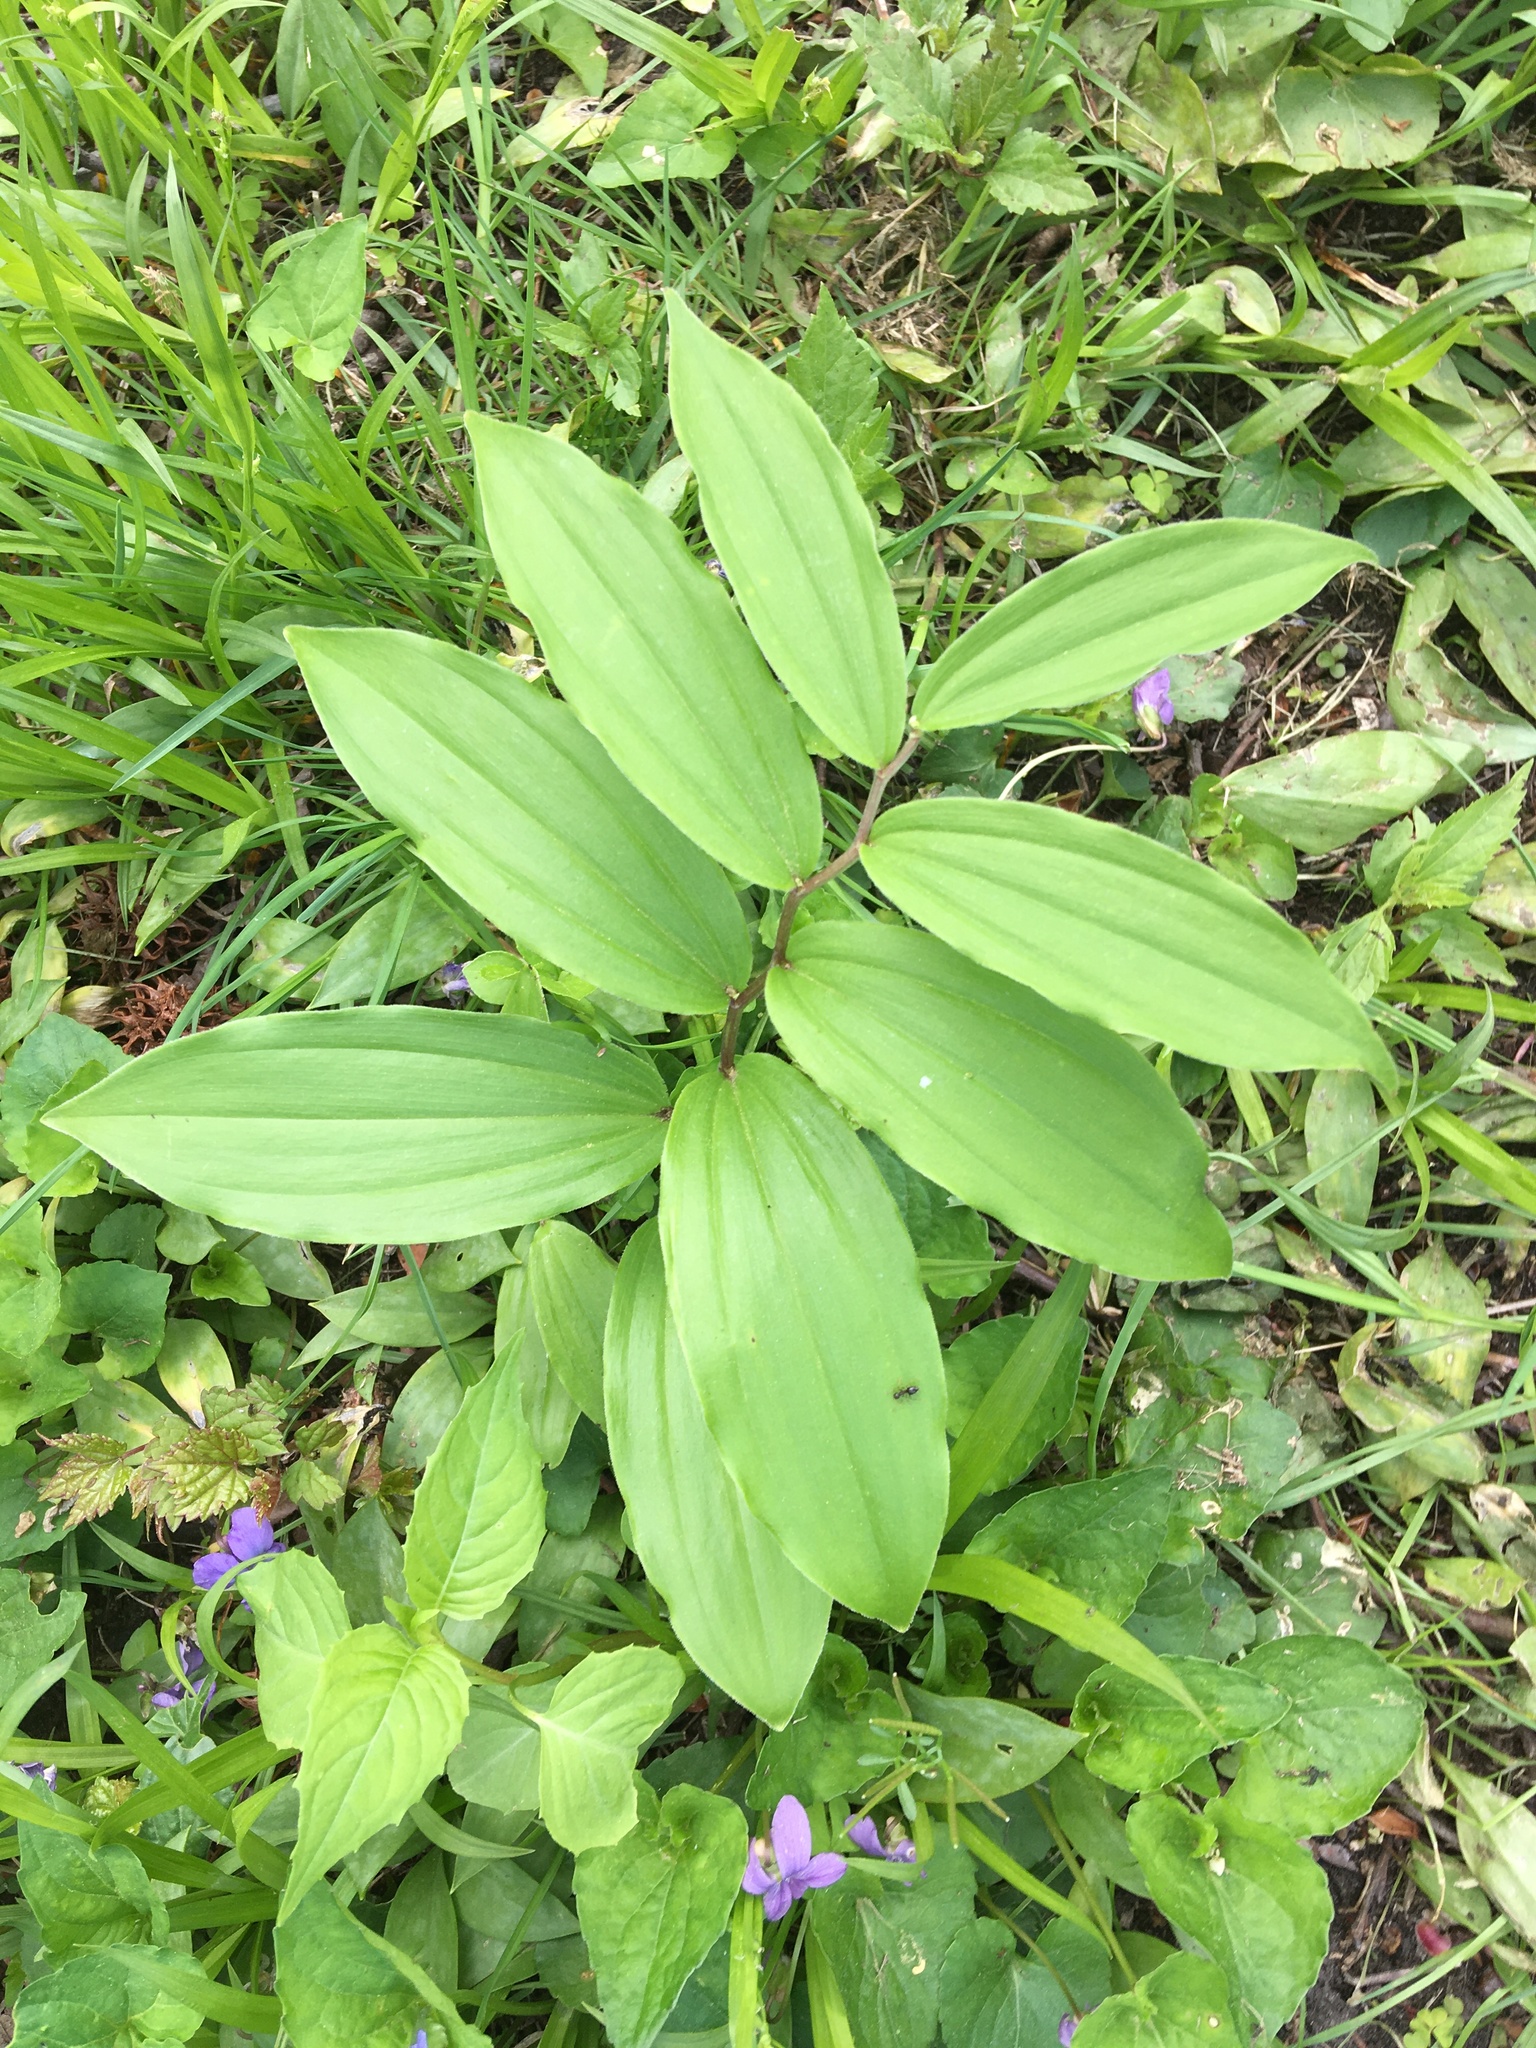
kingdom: Plantae
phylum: Tracheophyta
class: Liliopsida
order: Asparagales
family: Asparagaceae
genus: Maianthemum
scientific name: Maianthemum racemosum
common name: False spikenard
